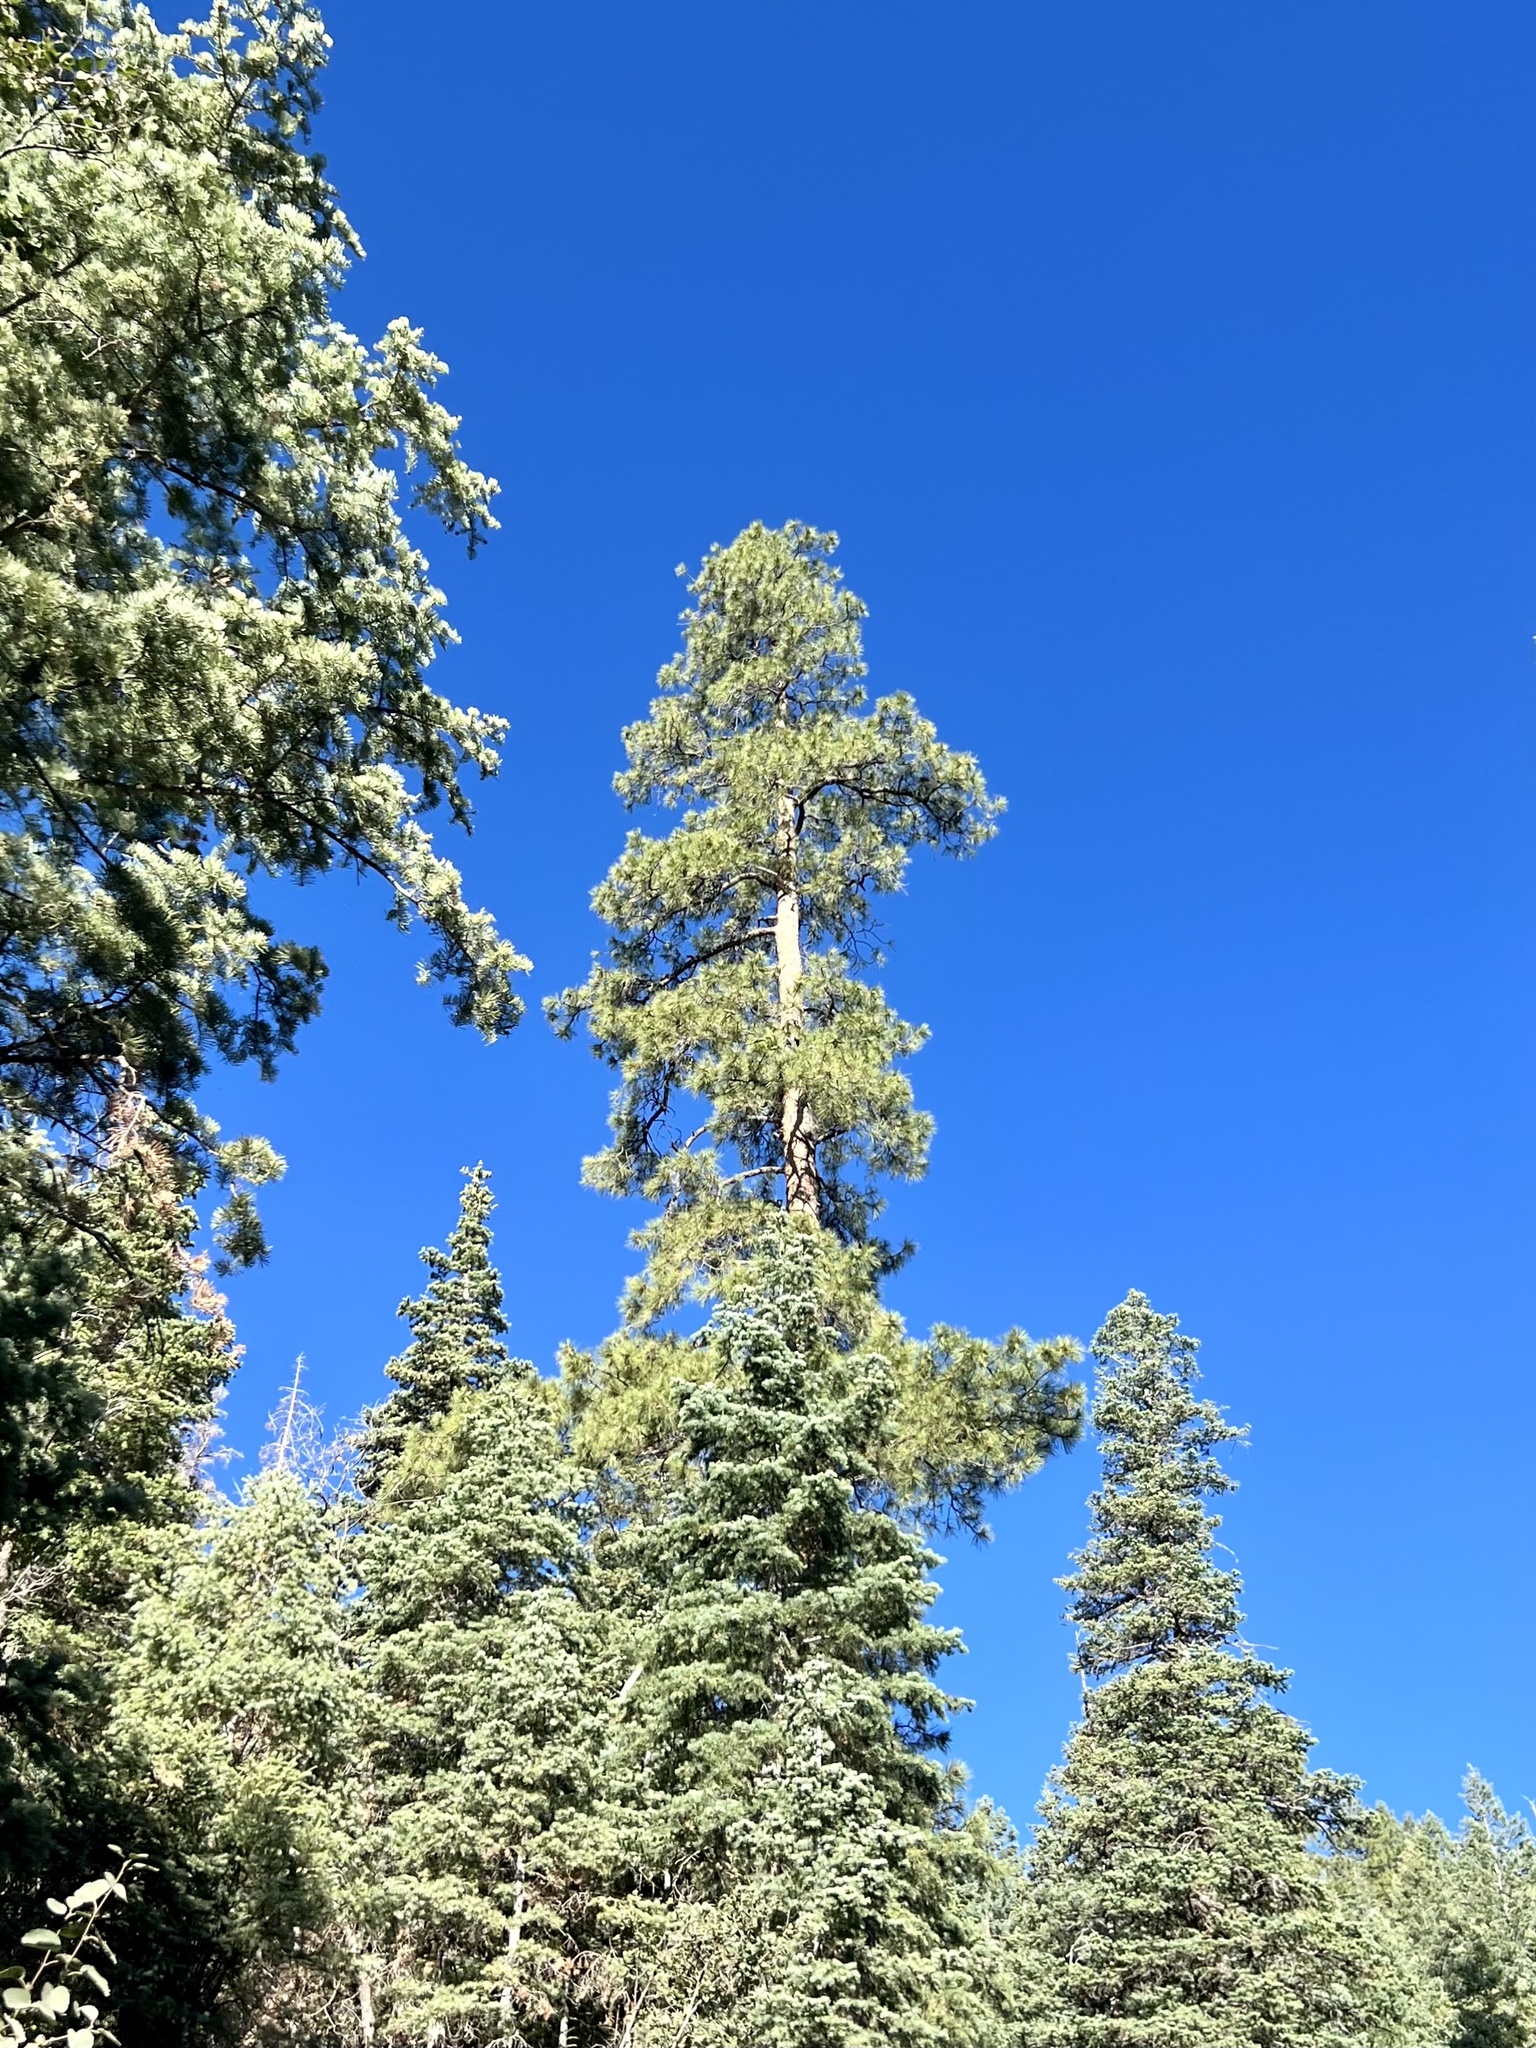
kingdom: Plantae
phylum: Tracheophyta
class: Pinopsida
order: Pinales
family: Pinaceae
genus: Pinus
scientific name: Pinus ponderosa
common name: Western yellow-pine
